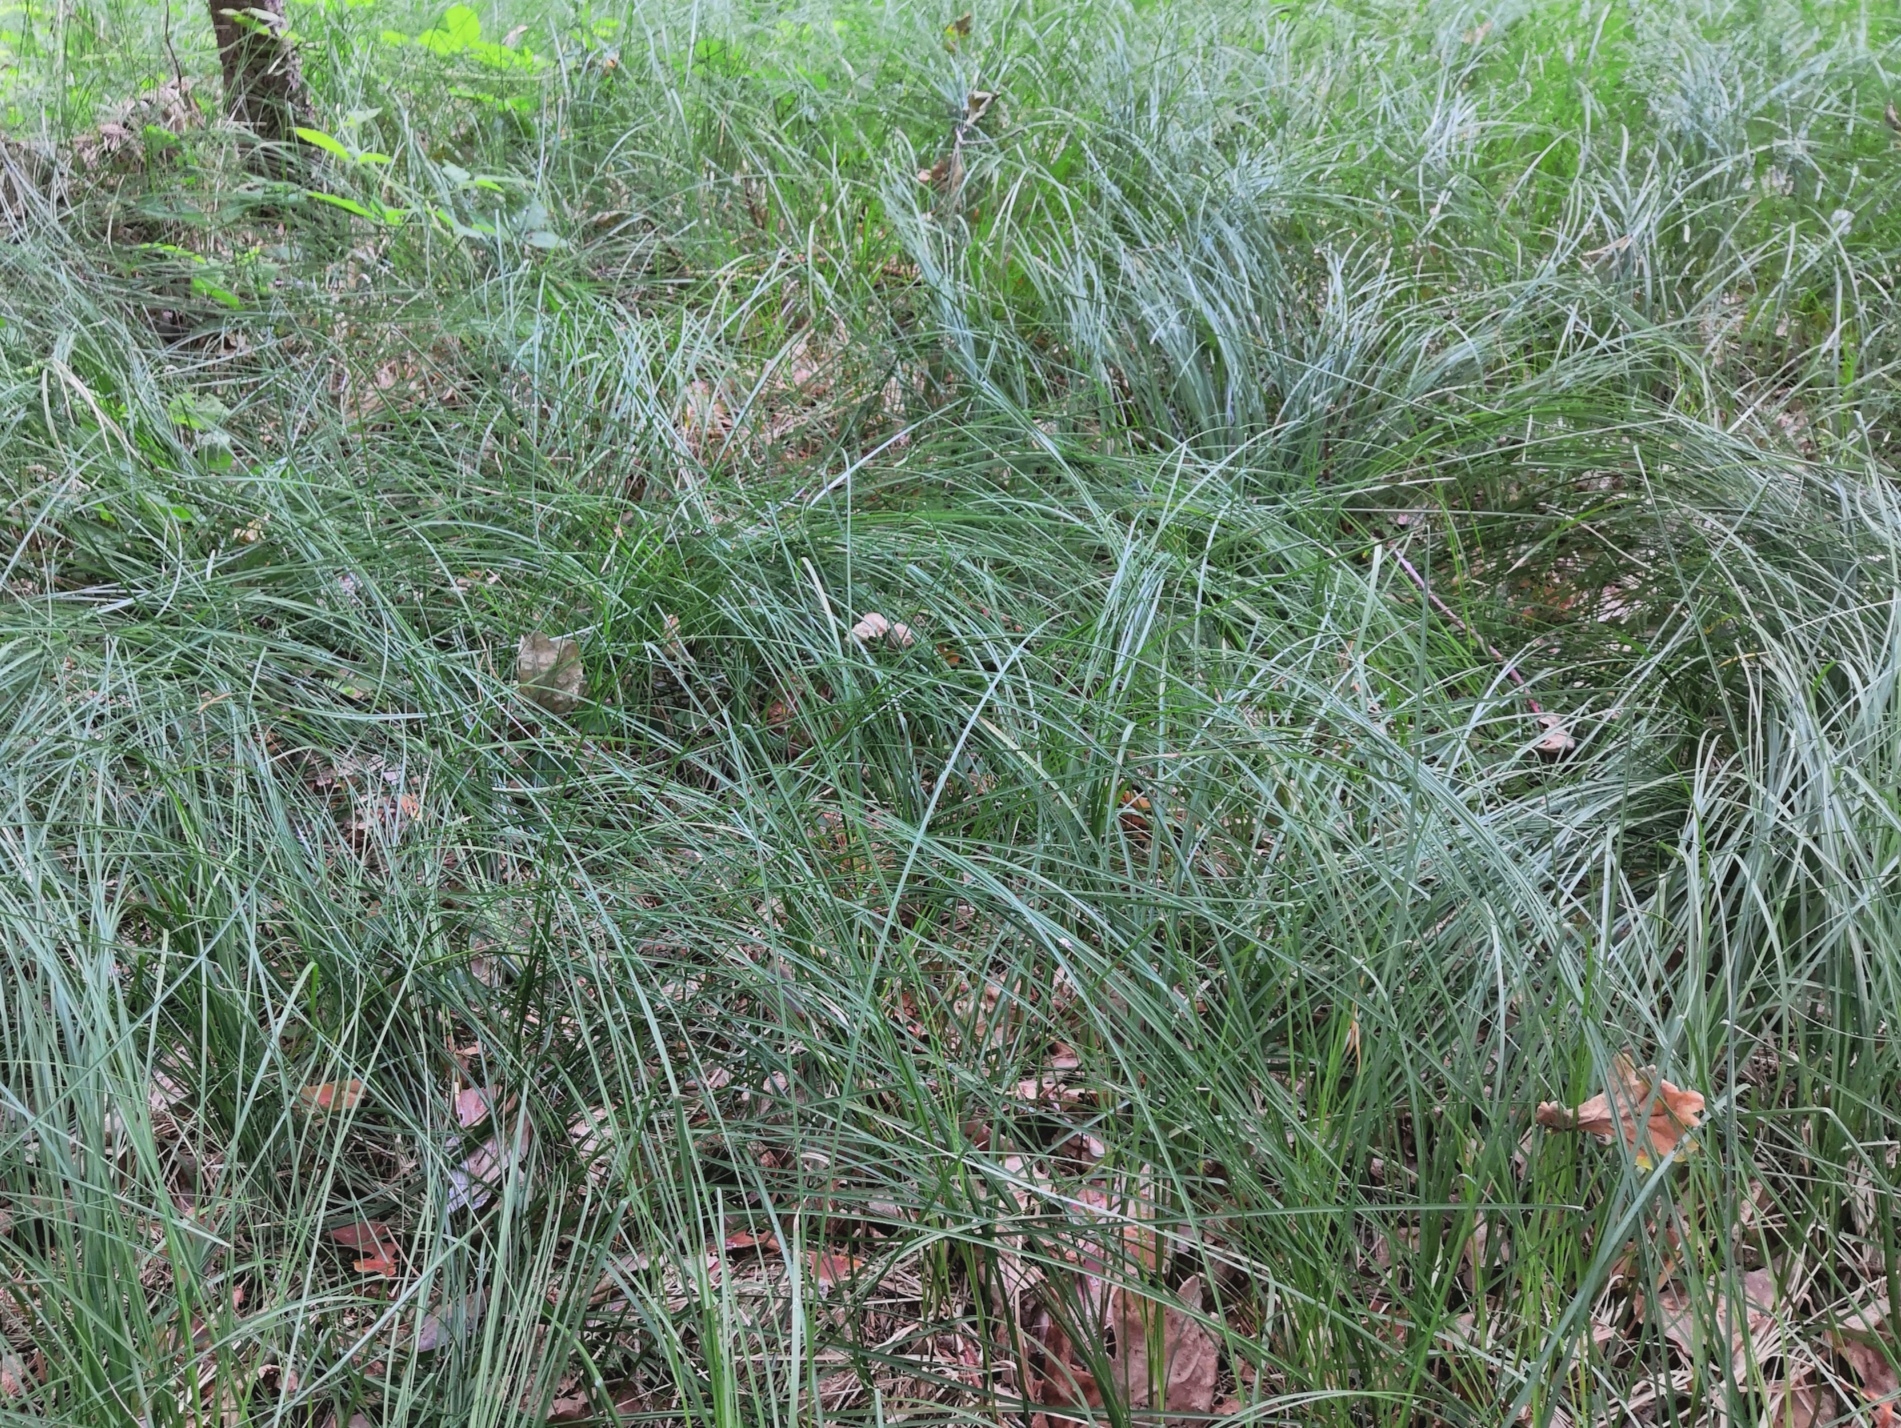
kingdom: Plantae
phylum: Tracheophyta
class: Liliopsida
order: Poales
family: Cyperaceae
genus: Carex
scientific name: Carex brizoides
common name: Quaking-grass sedge
